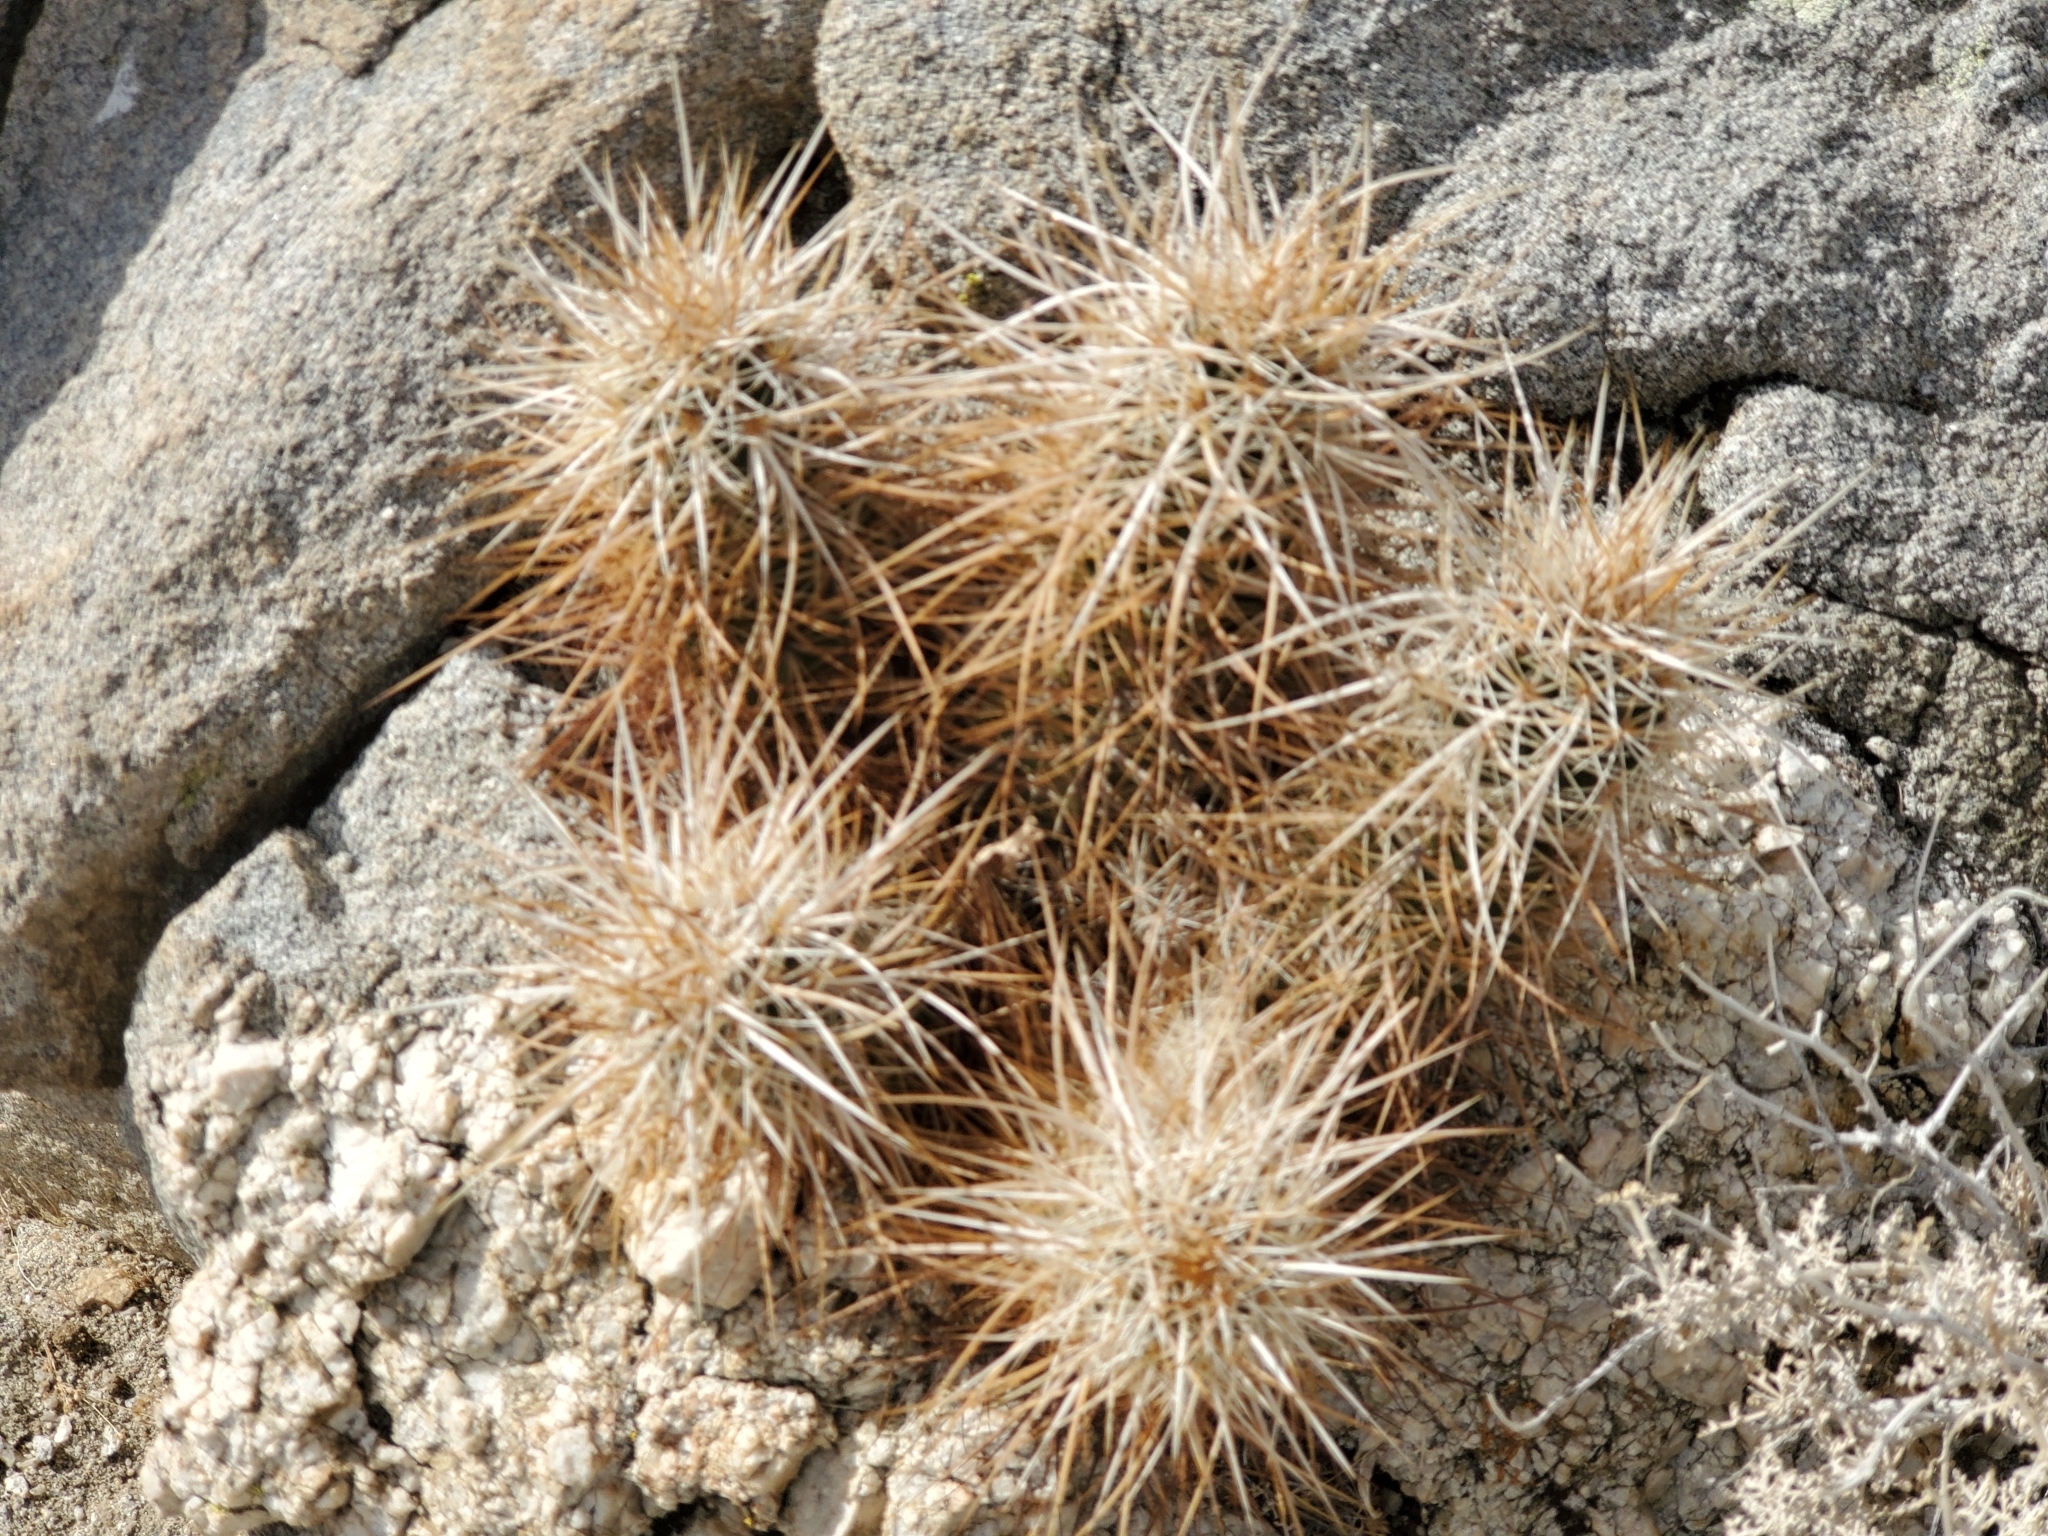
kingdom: Plantae
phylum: Tracheophyta
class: Magnoliopsida
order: Caryophyllales
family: Cactaceae
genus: Echinocereus
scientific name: Echinocereus engelmannii
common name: Engelmann's hedgehog cactus
